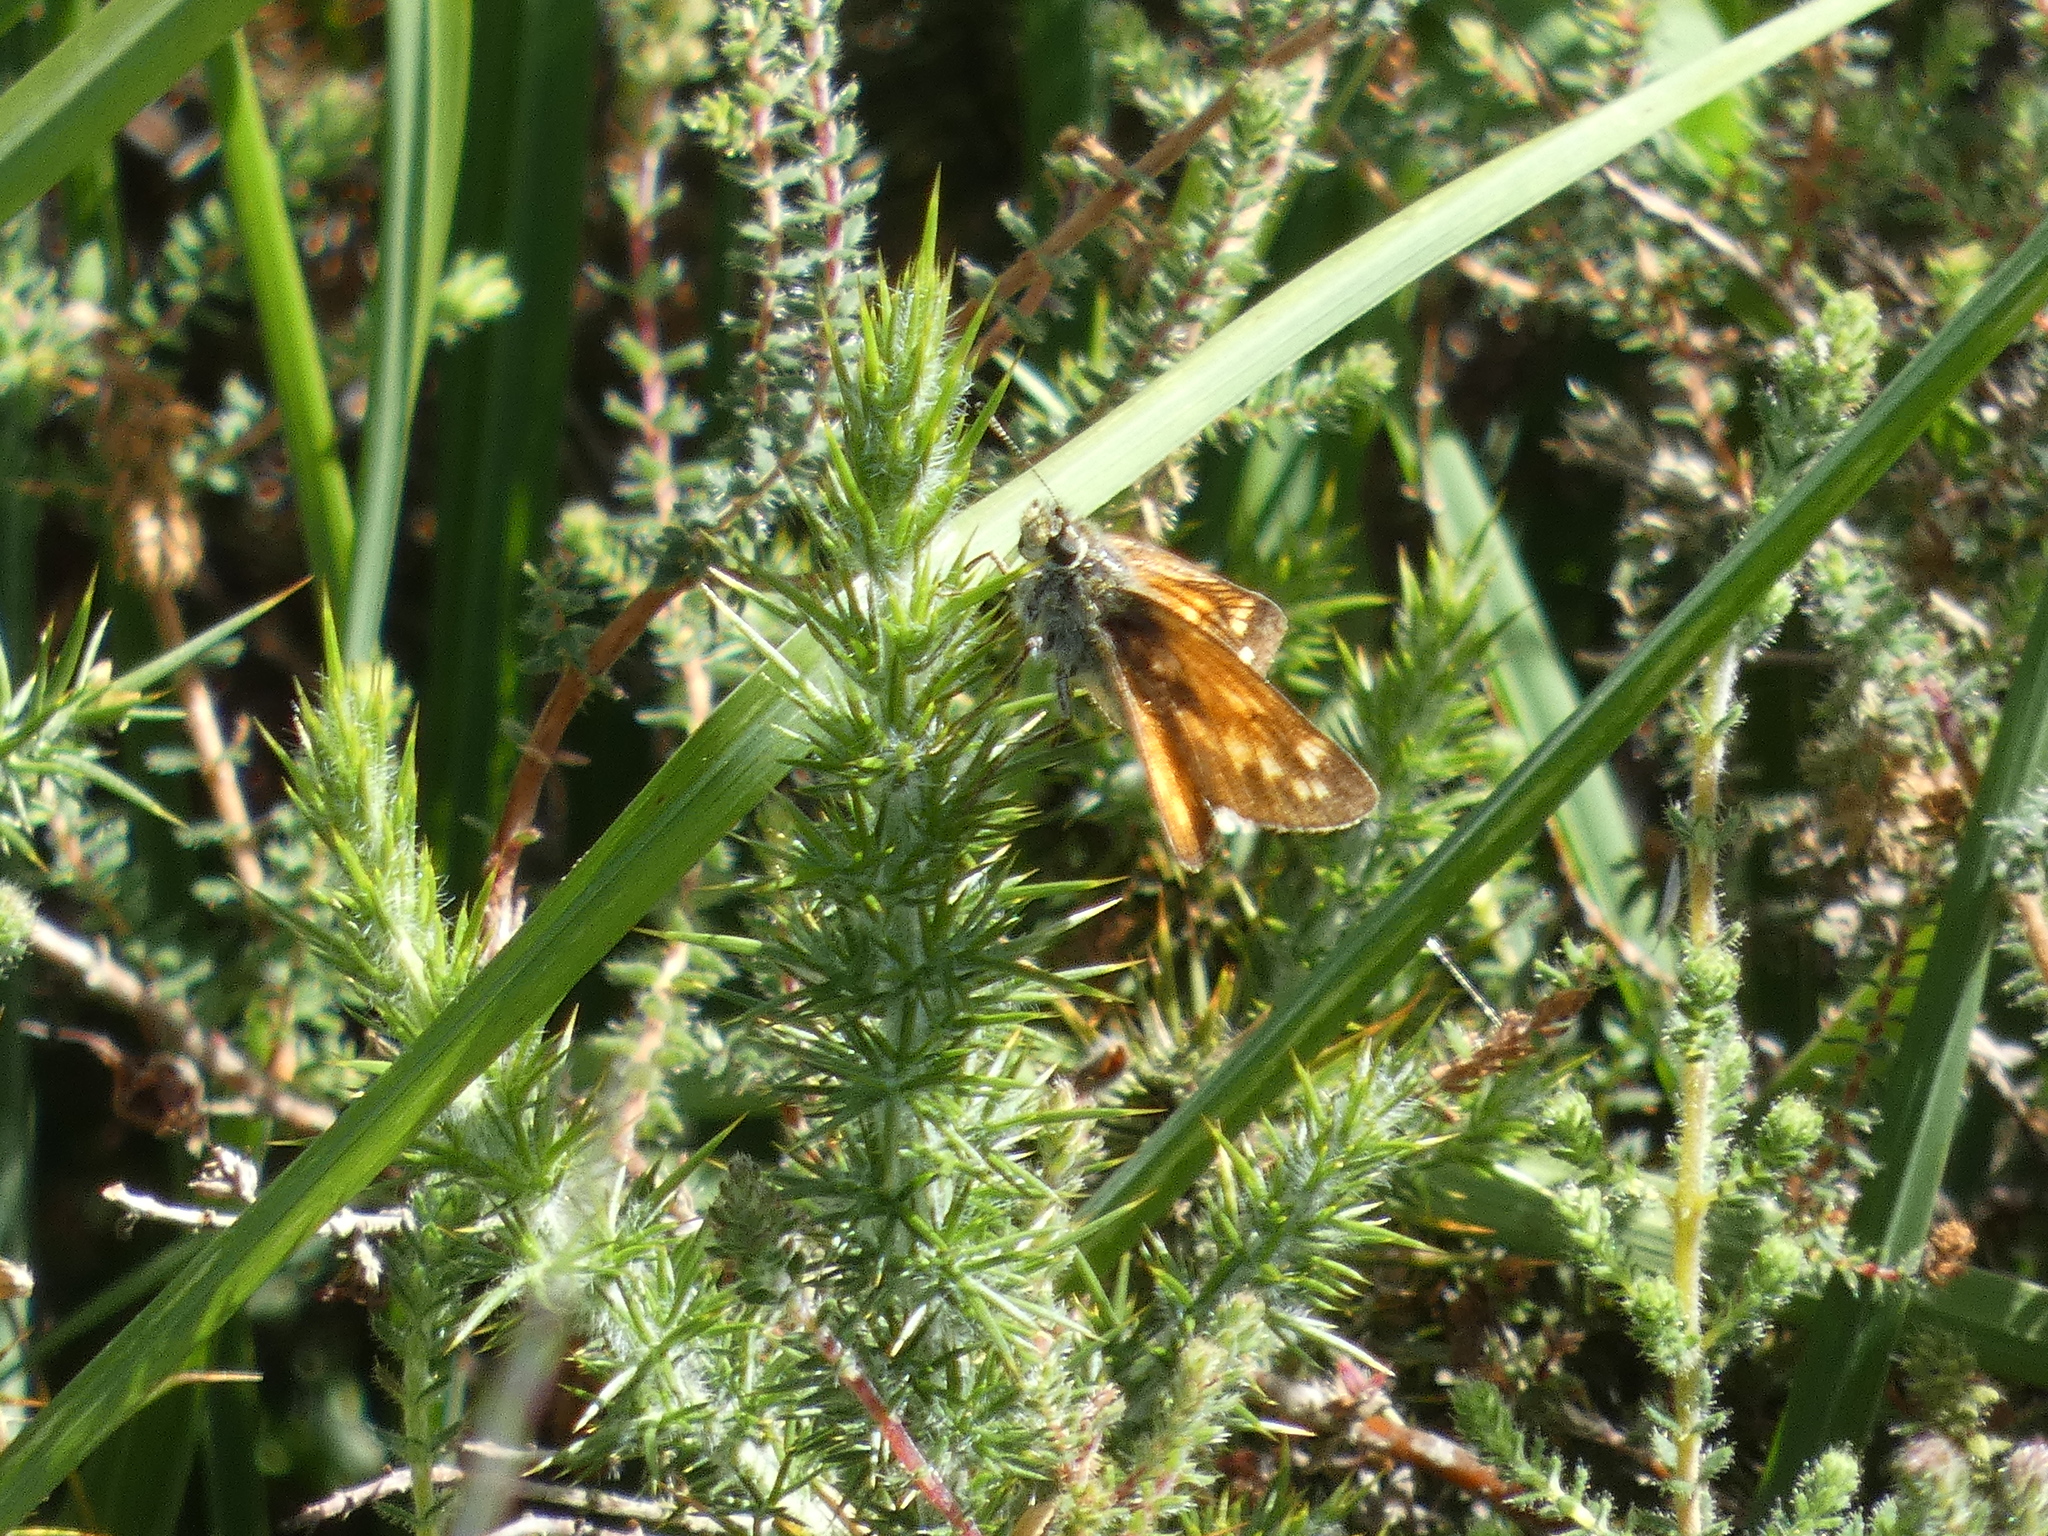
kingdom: Animalia
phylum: Arthropoda
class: Insecta
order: Lepidoptera
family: Hesperiidae
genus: Ochlodes
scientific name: Ochlodes venata
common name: Large skipper
